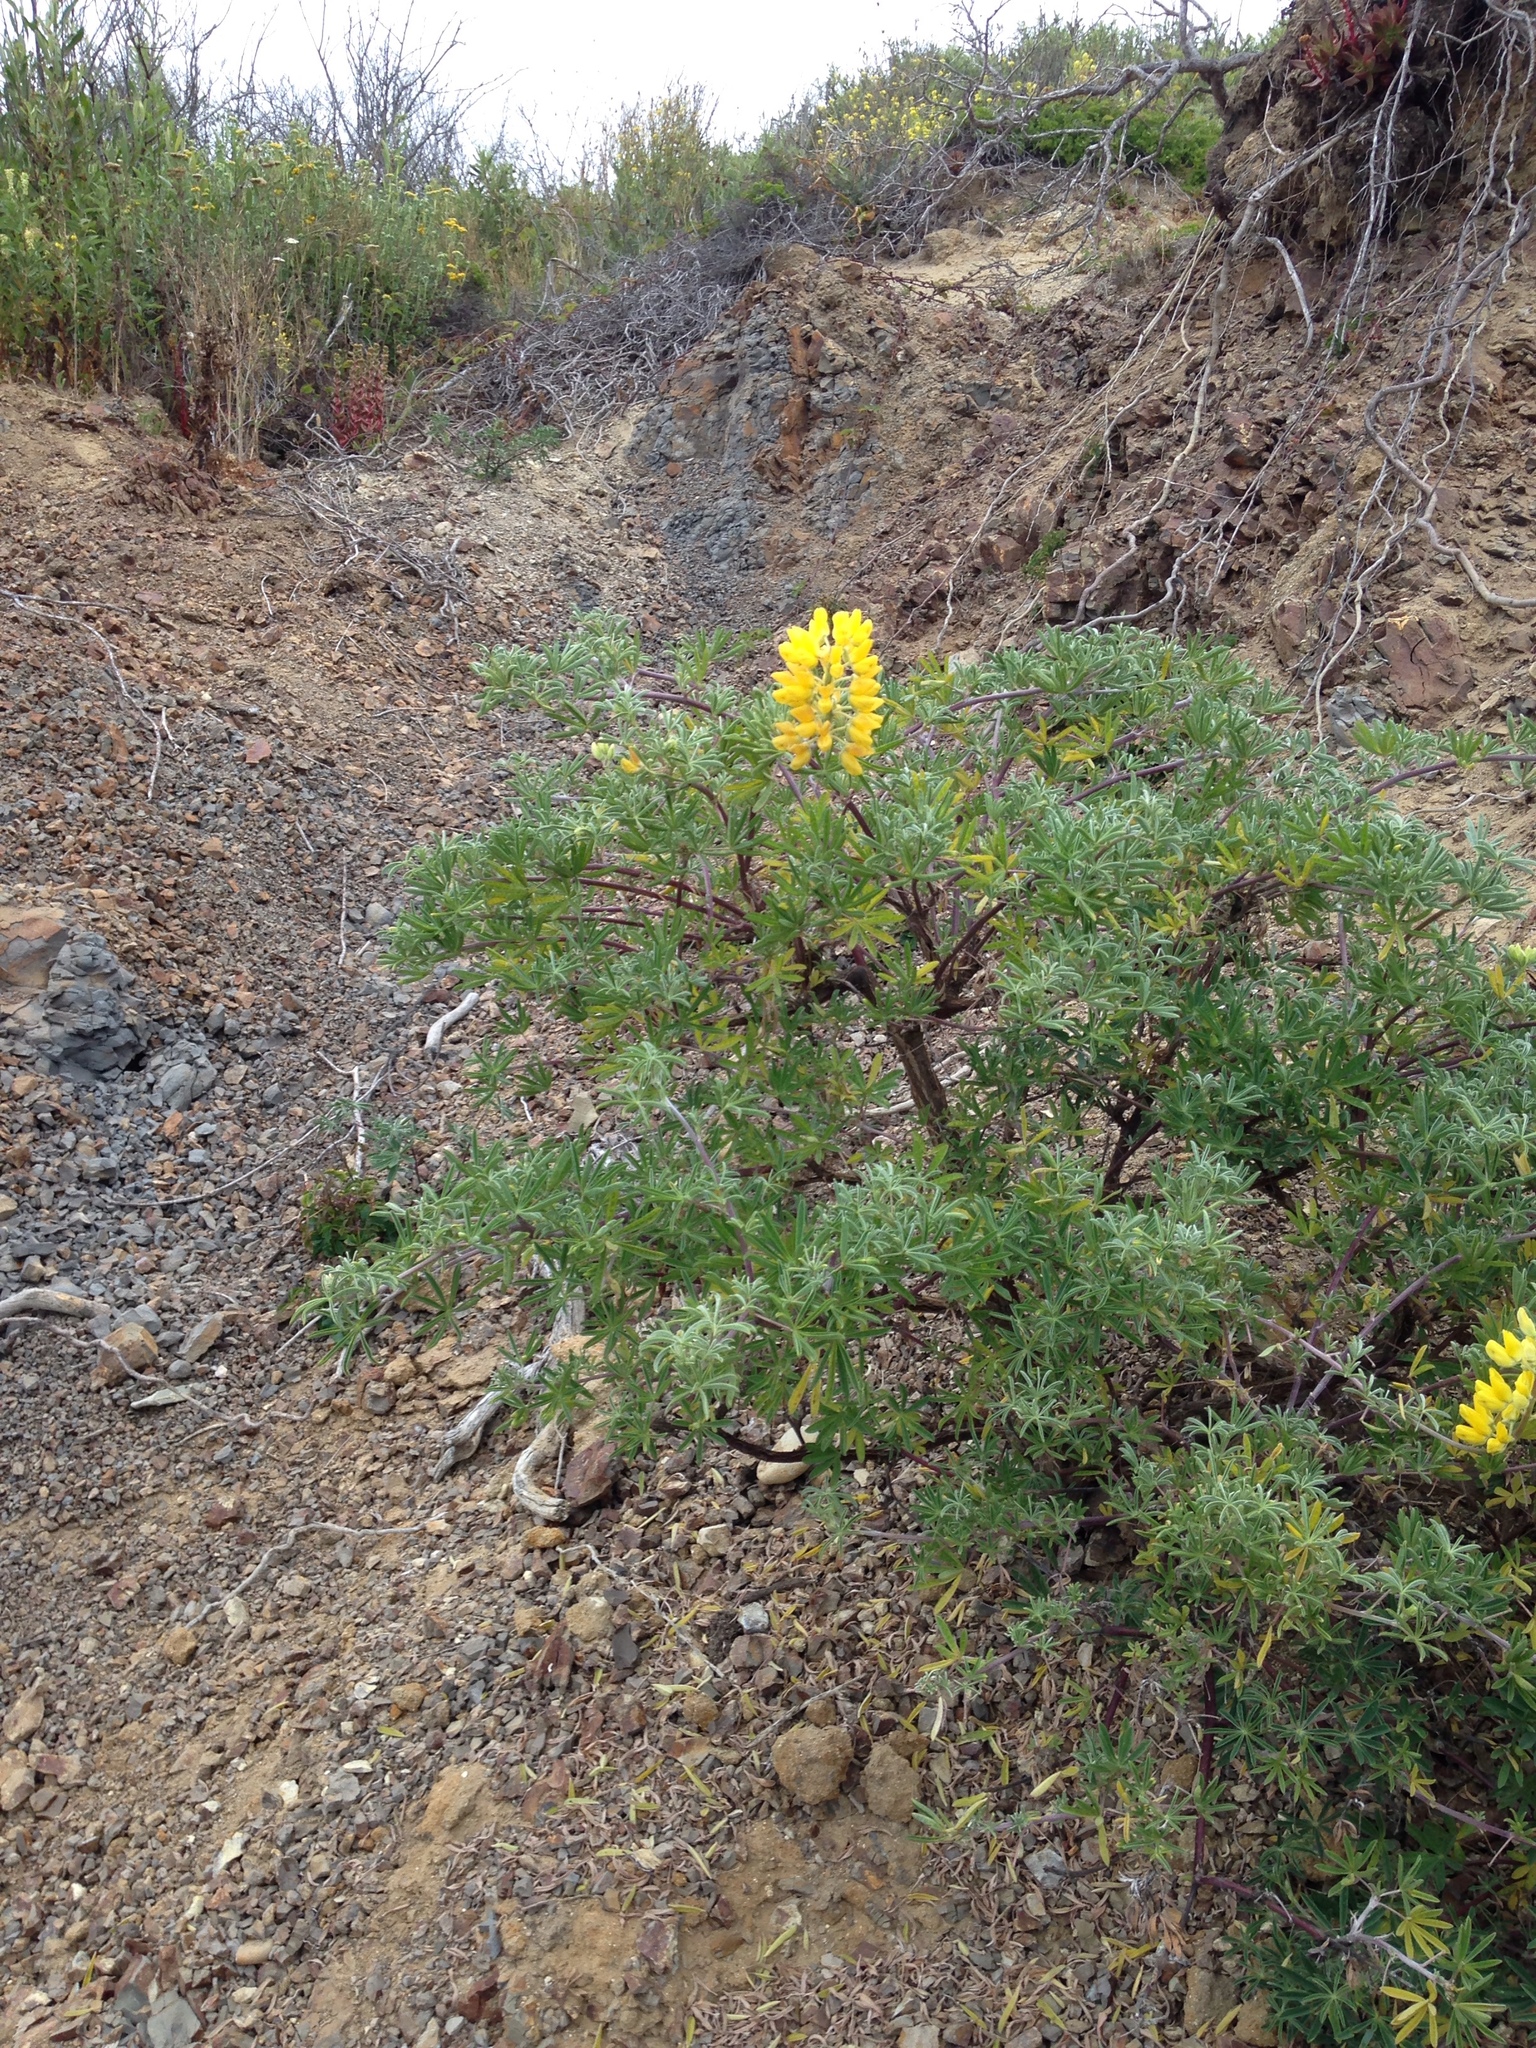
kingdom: Plantae
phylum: Tracheophyta
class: Magnoliopsida
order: Fabales
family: Fabaceae
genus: Lupinus
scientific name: Lupinus arboreus
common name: Yellow bush lupine
